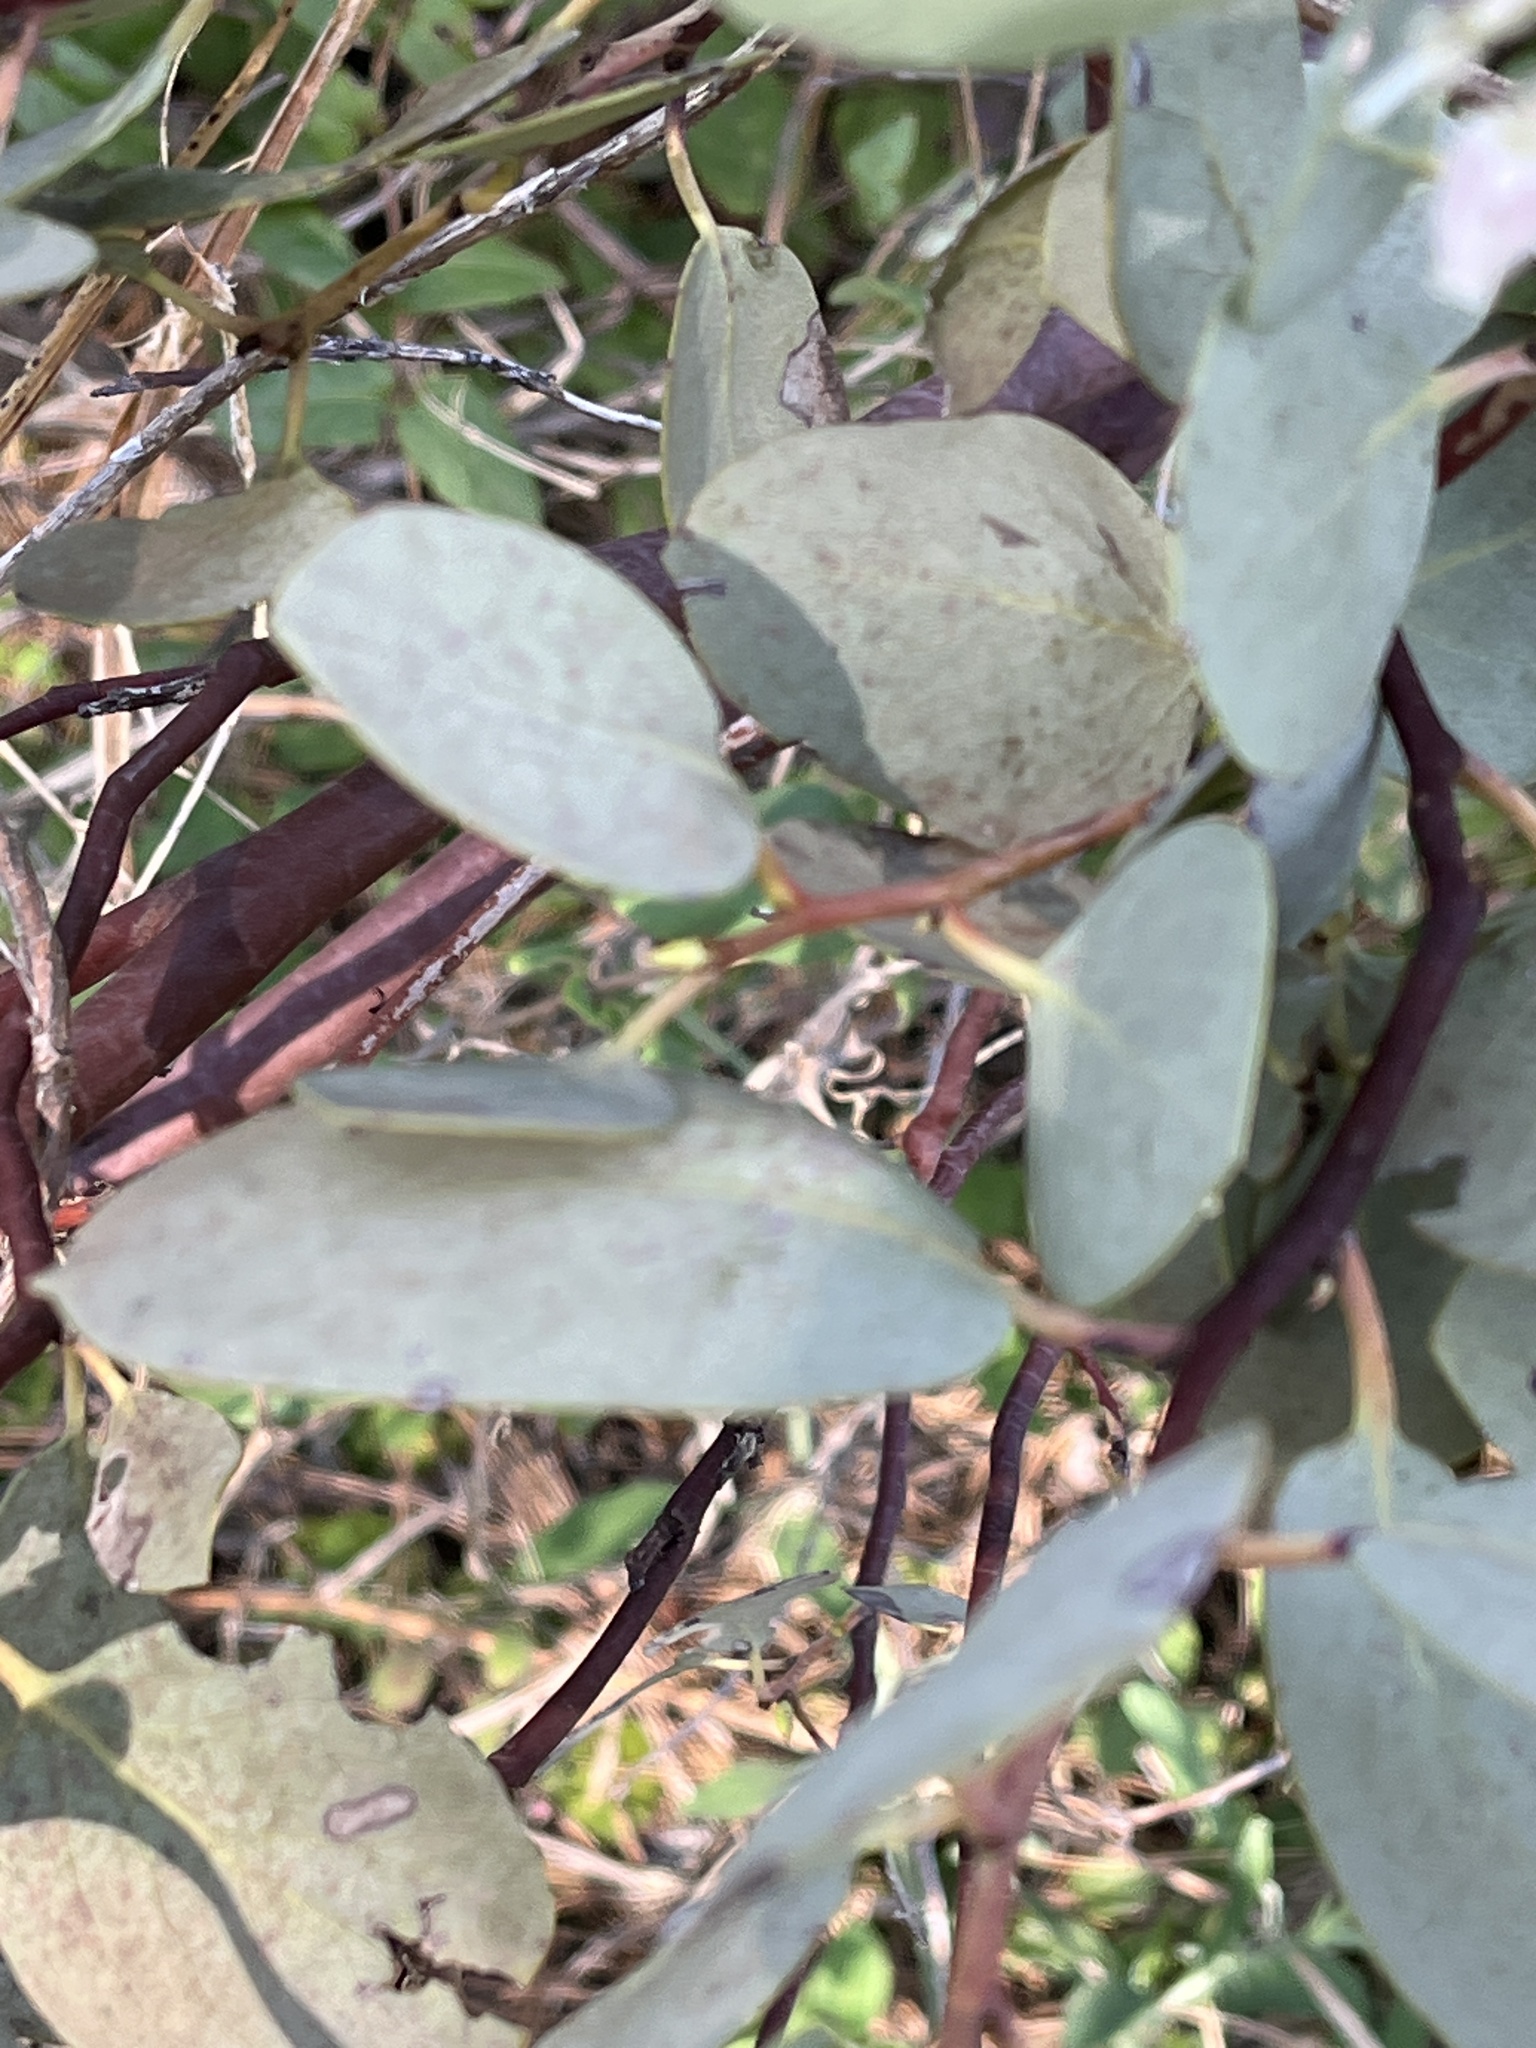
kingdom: Plantae
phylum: Tracheophyta
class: Magnoliopsida
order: Ericales
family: Ericaceae
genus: Arctostaphylos
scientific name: Arctostaphylos viscida
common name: White-leaf manzanita
